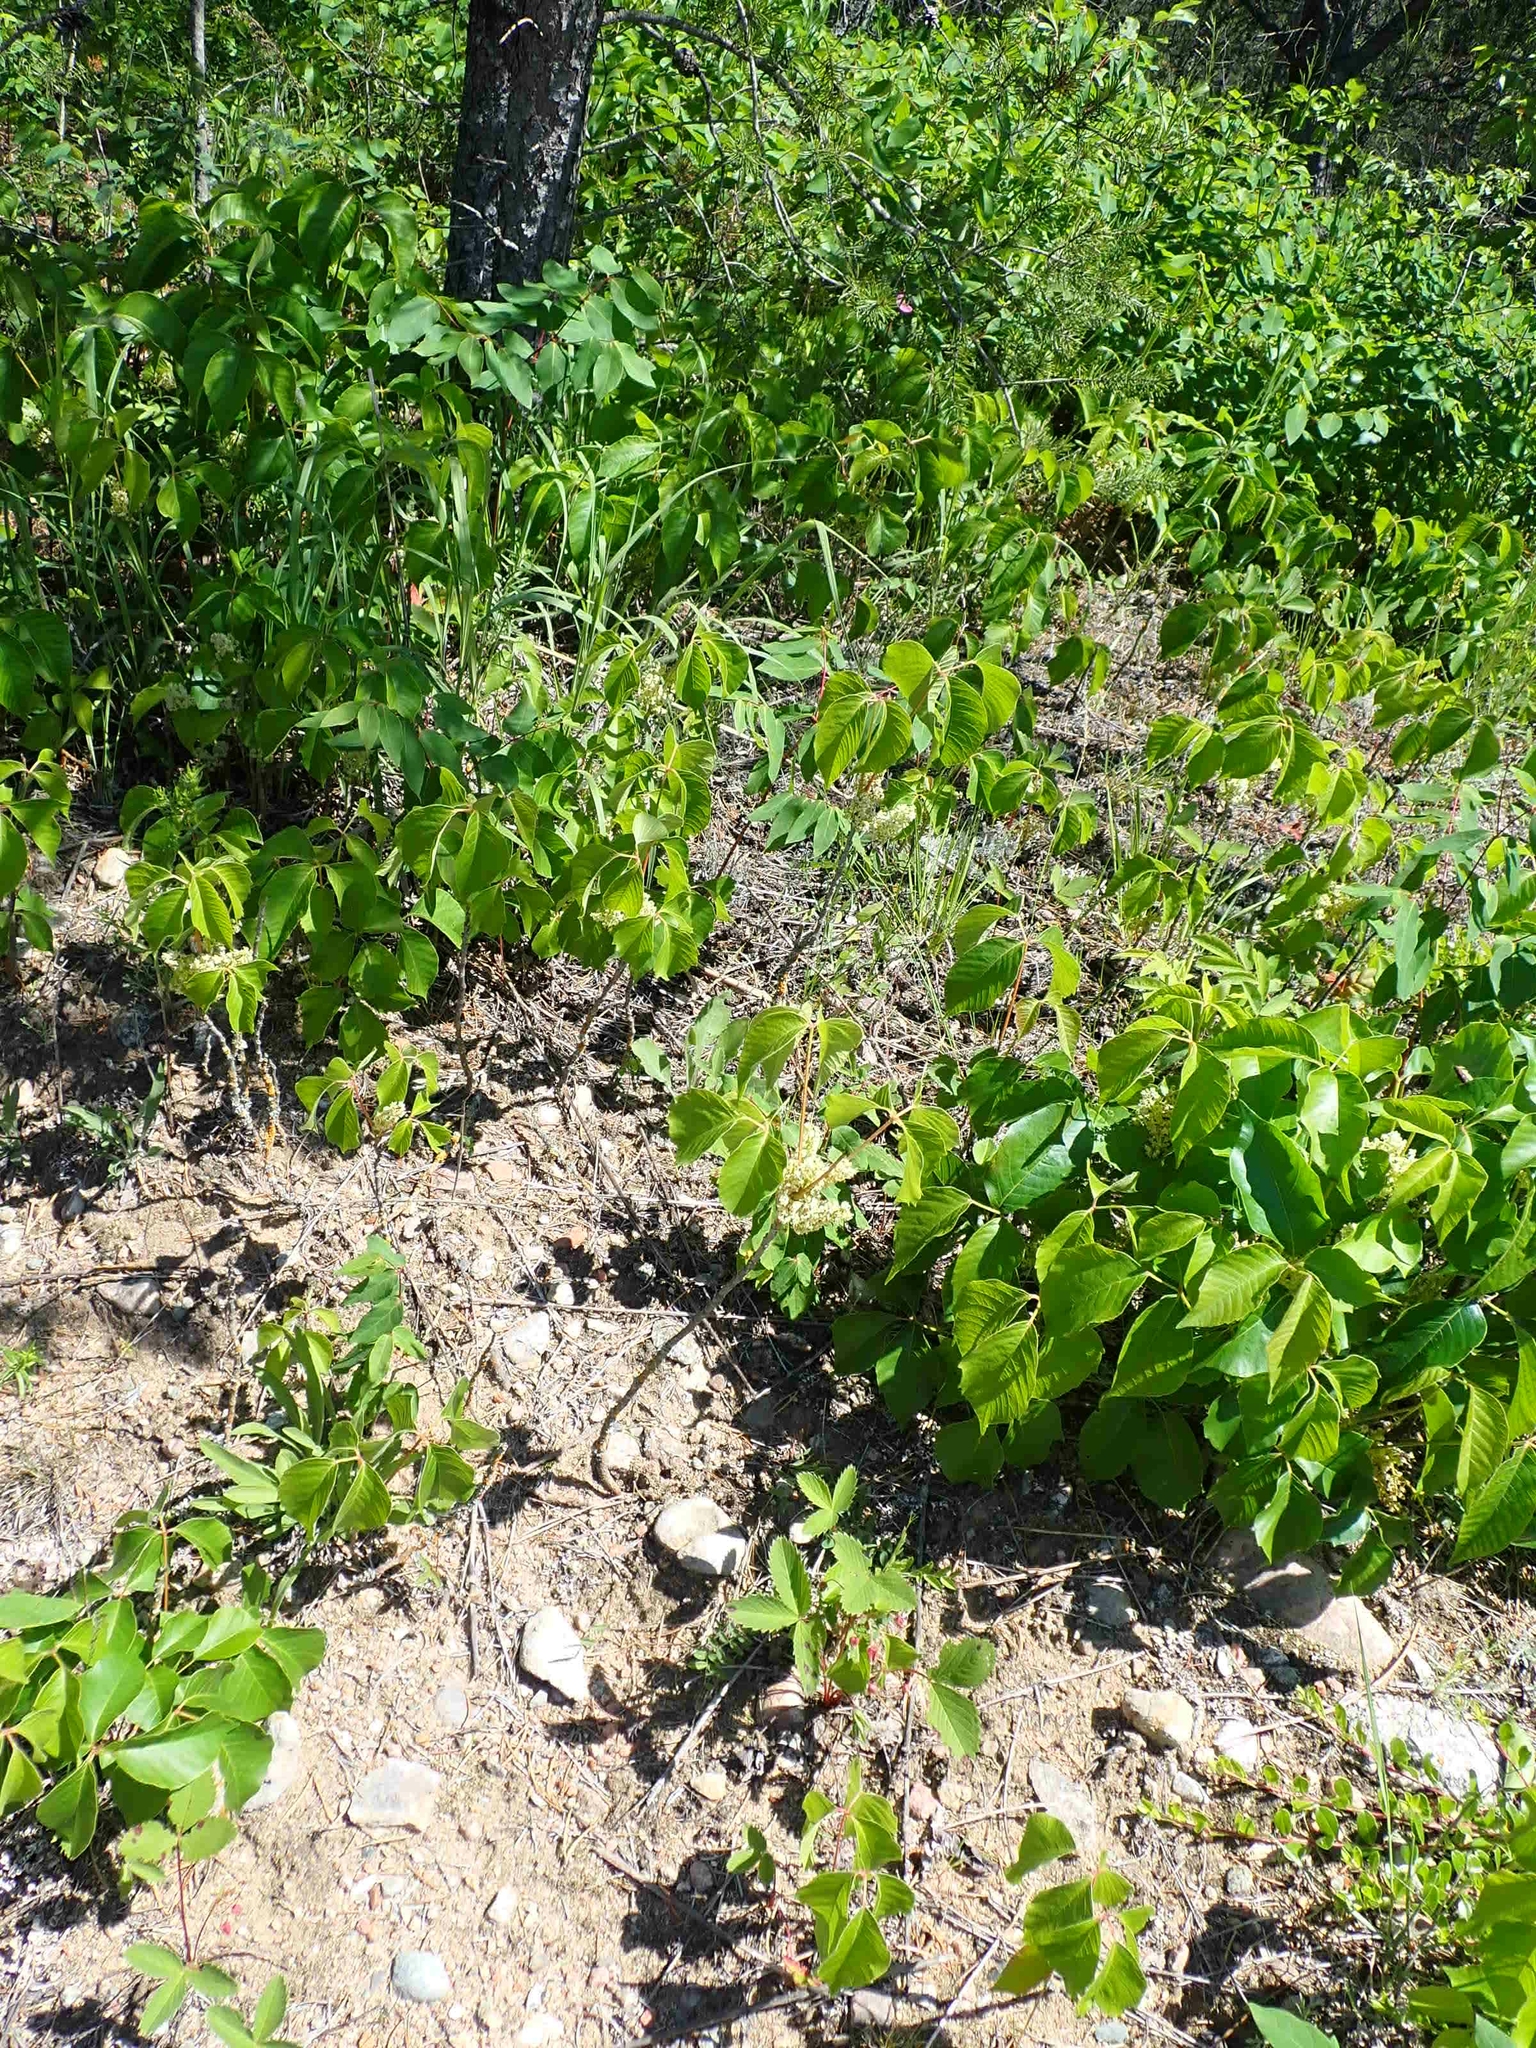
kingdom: Plantae
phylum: Tracheophyta
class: Magnoliopsida
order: Sapindales
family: Anacardiaceae
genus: Toxicodendron
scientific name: Toxicodendron rydbergii
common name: Rydberg's poison-ivy
